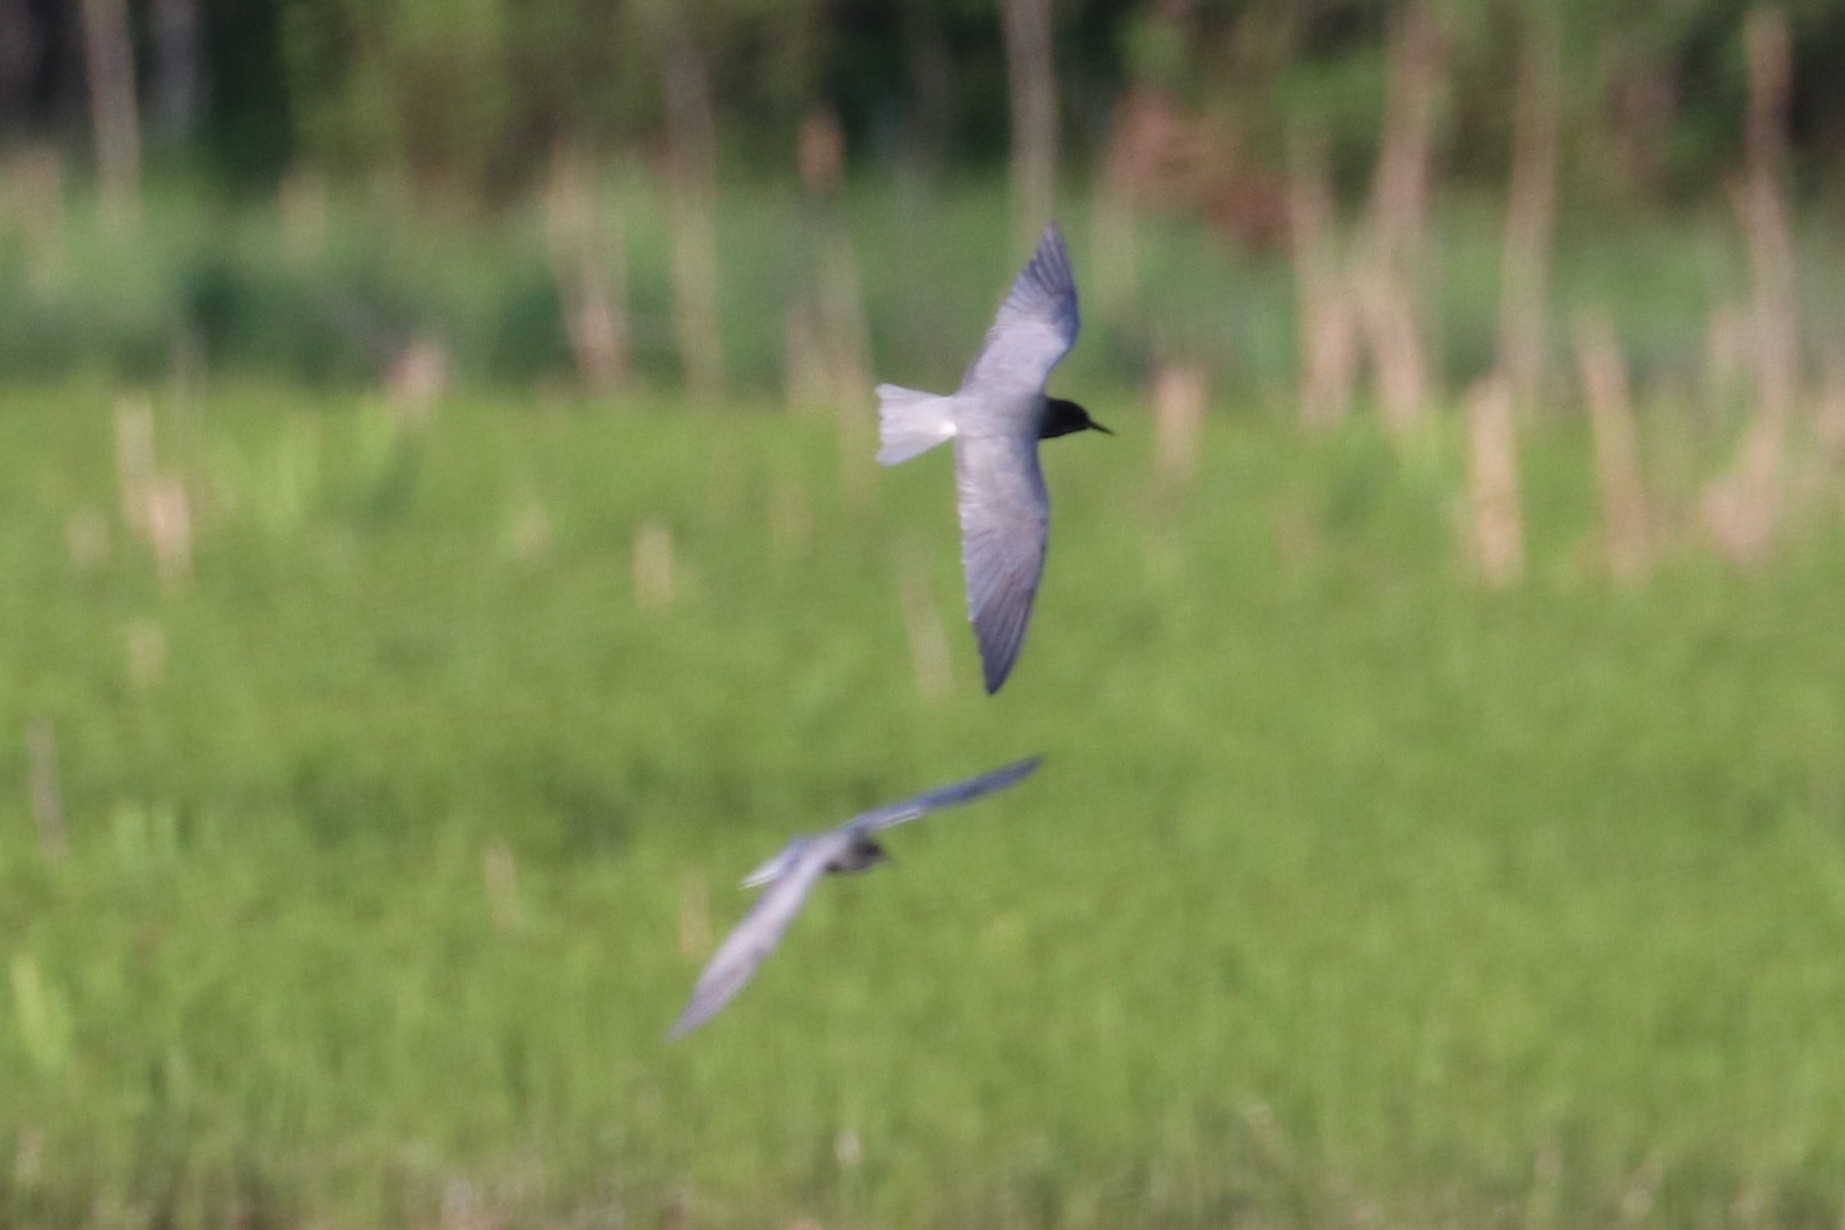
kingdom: Animalia
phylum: Chordata
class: Aves
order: Charadriiformes
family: Laridae
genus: Chlidonias
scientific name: Chlidonias niger
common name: Black tern
